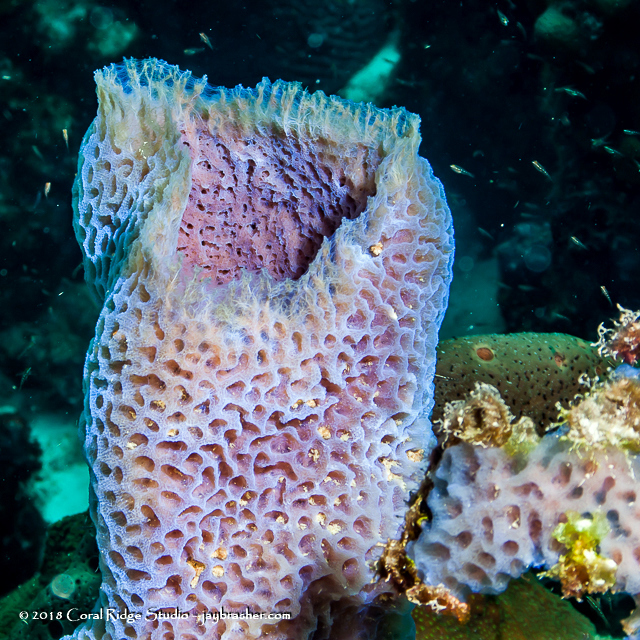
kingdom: Animalia
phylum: Porifera
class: Demospongiae
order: Haplosclerida
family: Callyspongiidae
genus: Callyspongia
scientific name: Callyspongia plicifera
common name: Azure vase sponge
